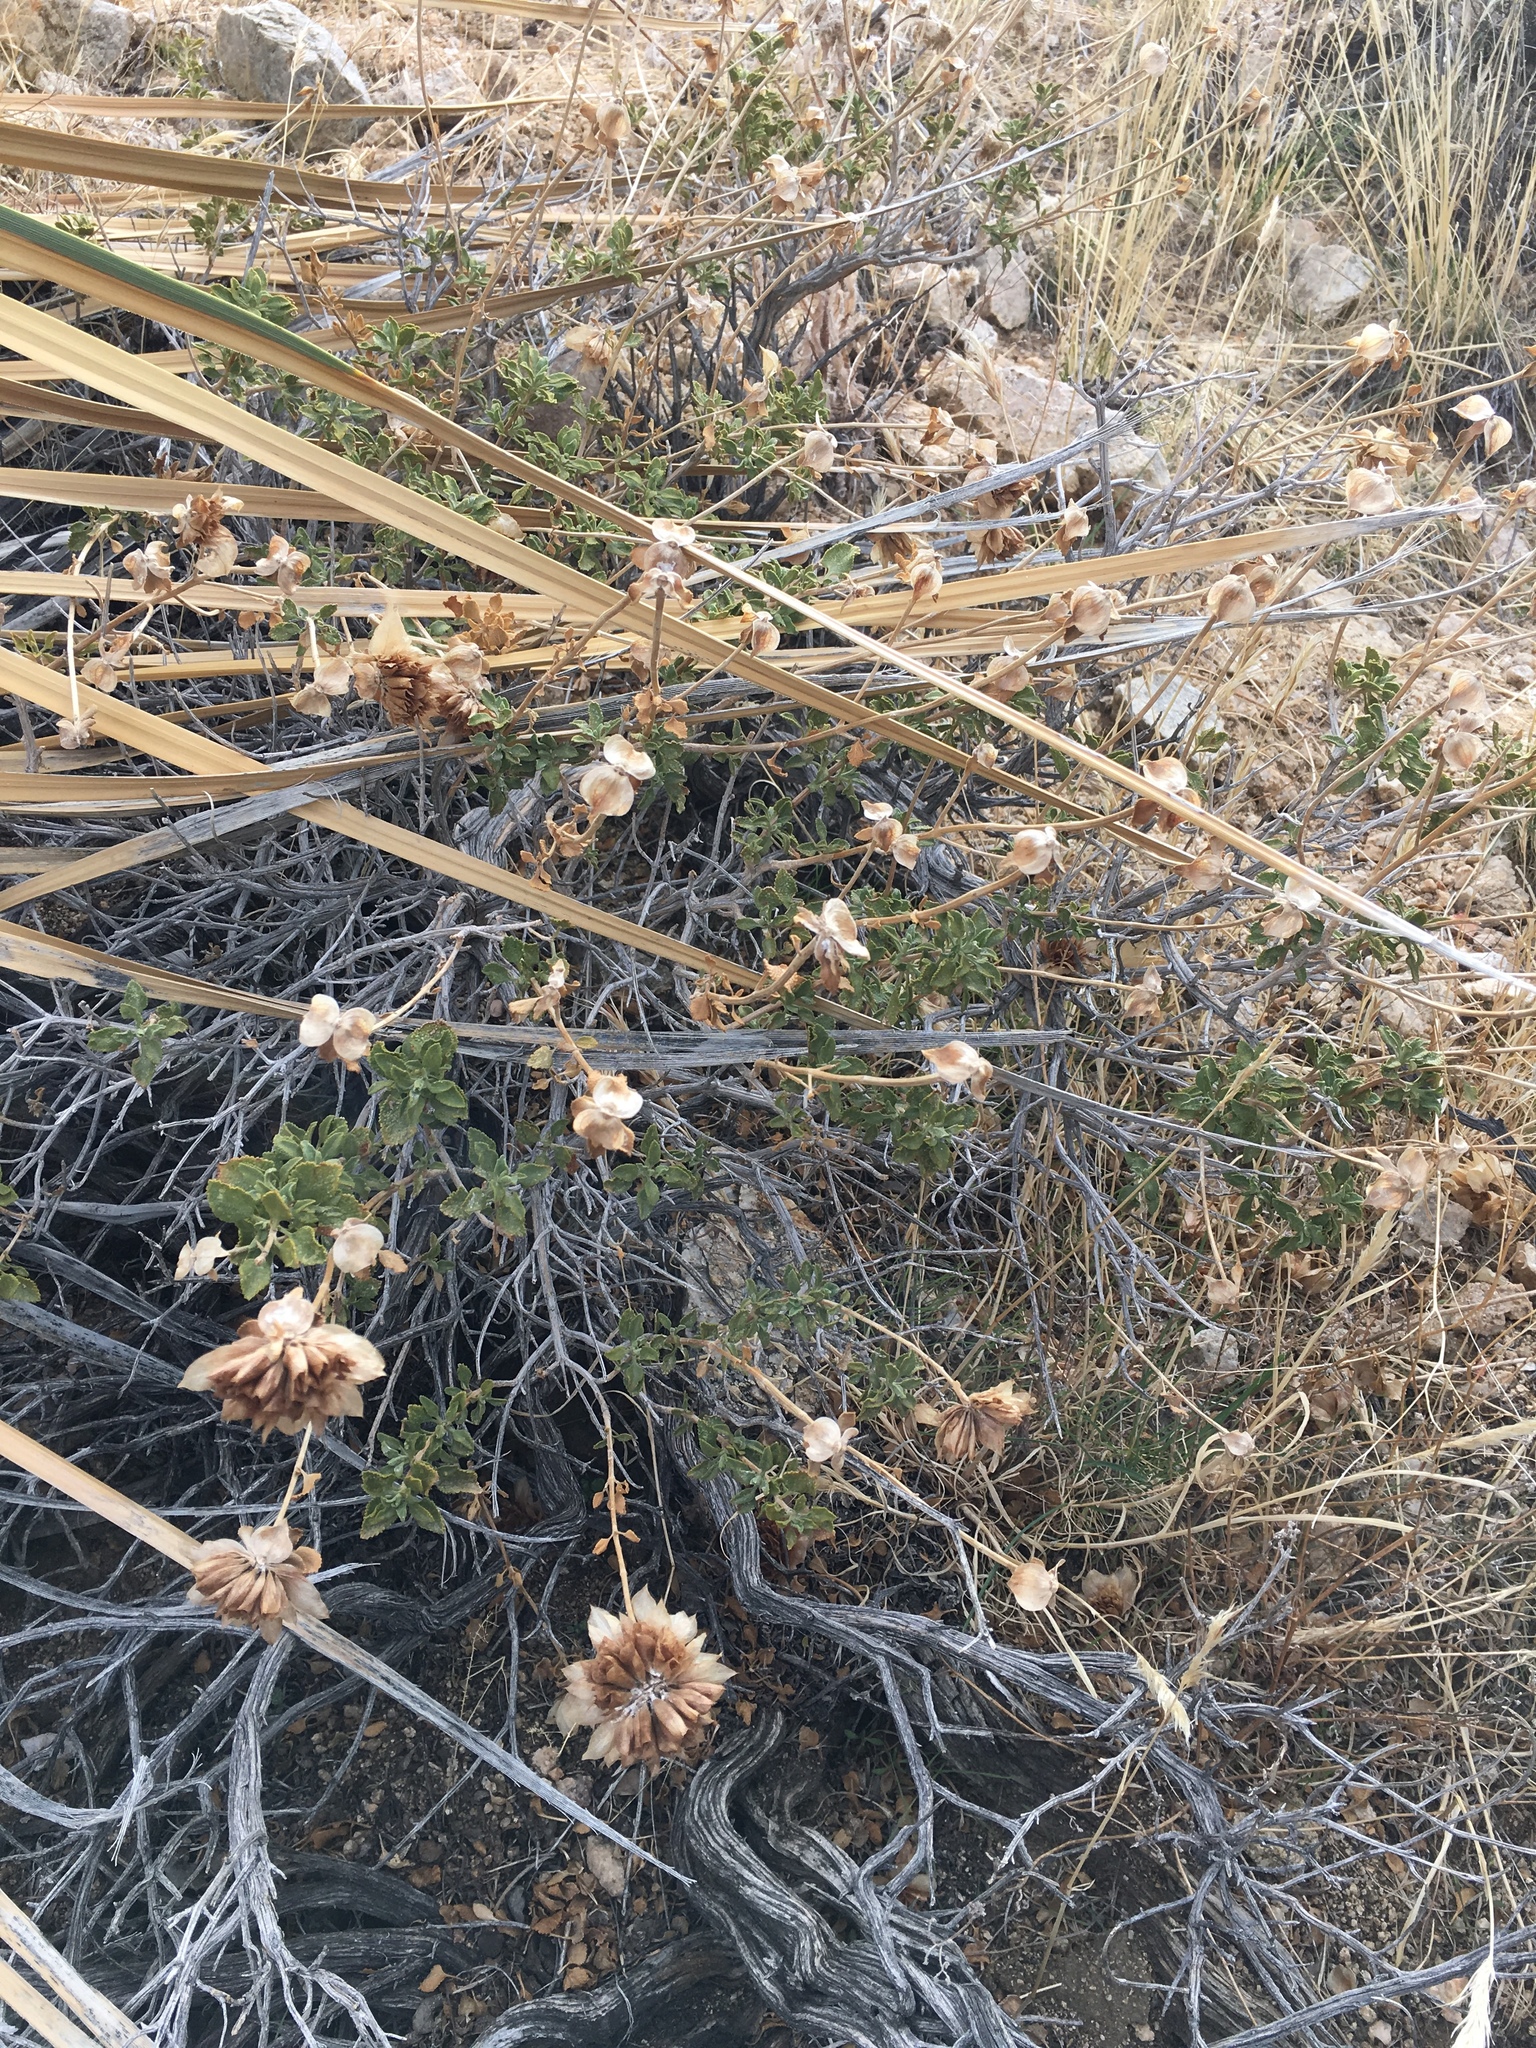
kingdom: Plantae
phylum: Tracheophyta
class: Magnoliopsida
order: Lamiales
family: Lamiaceae
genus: Salvia
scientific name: Salvia mohavensis
